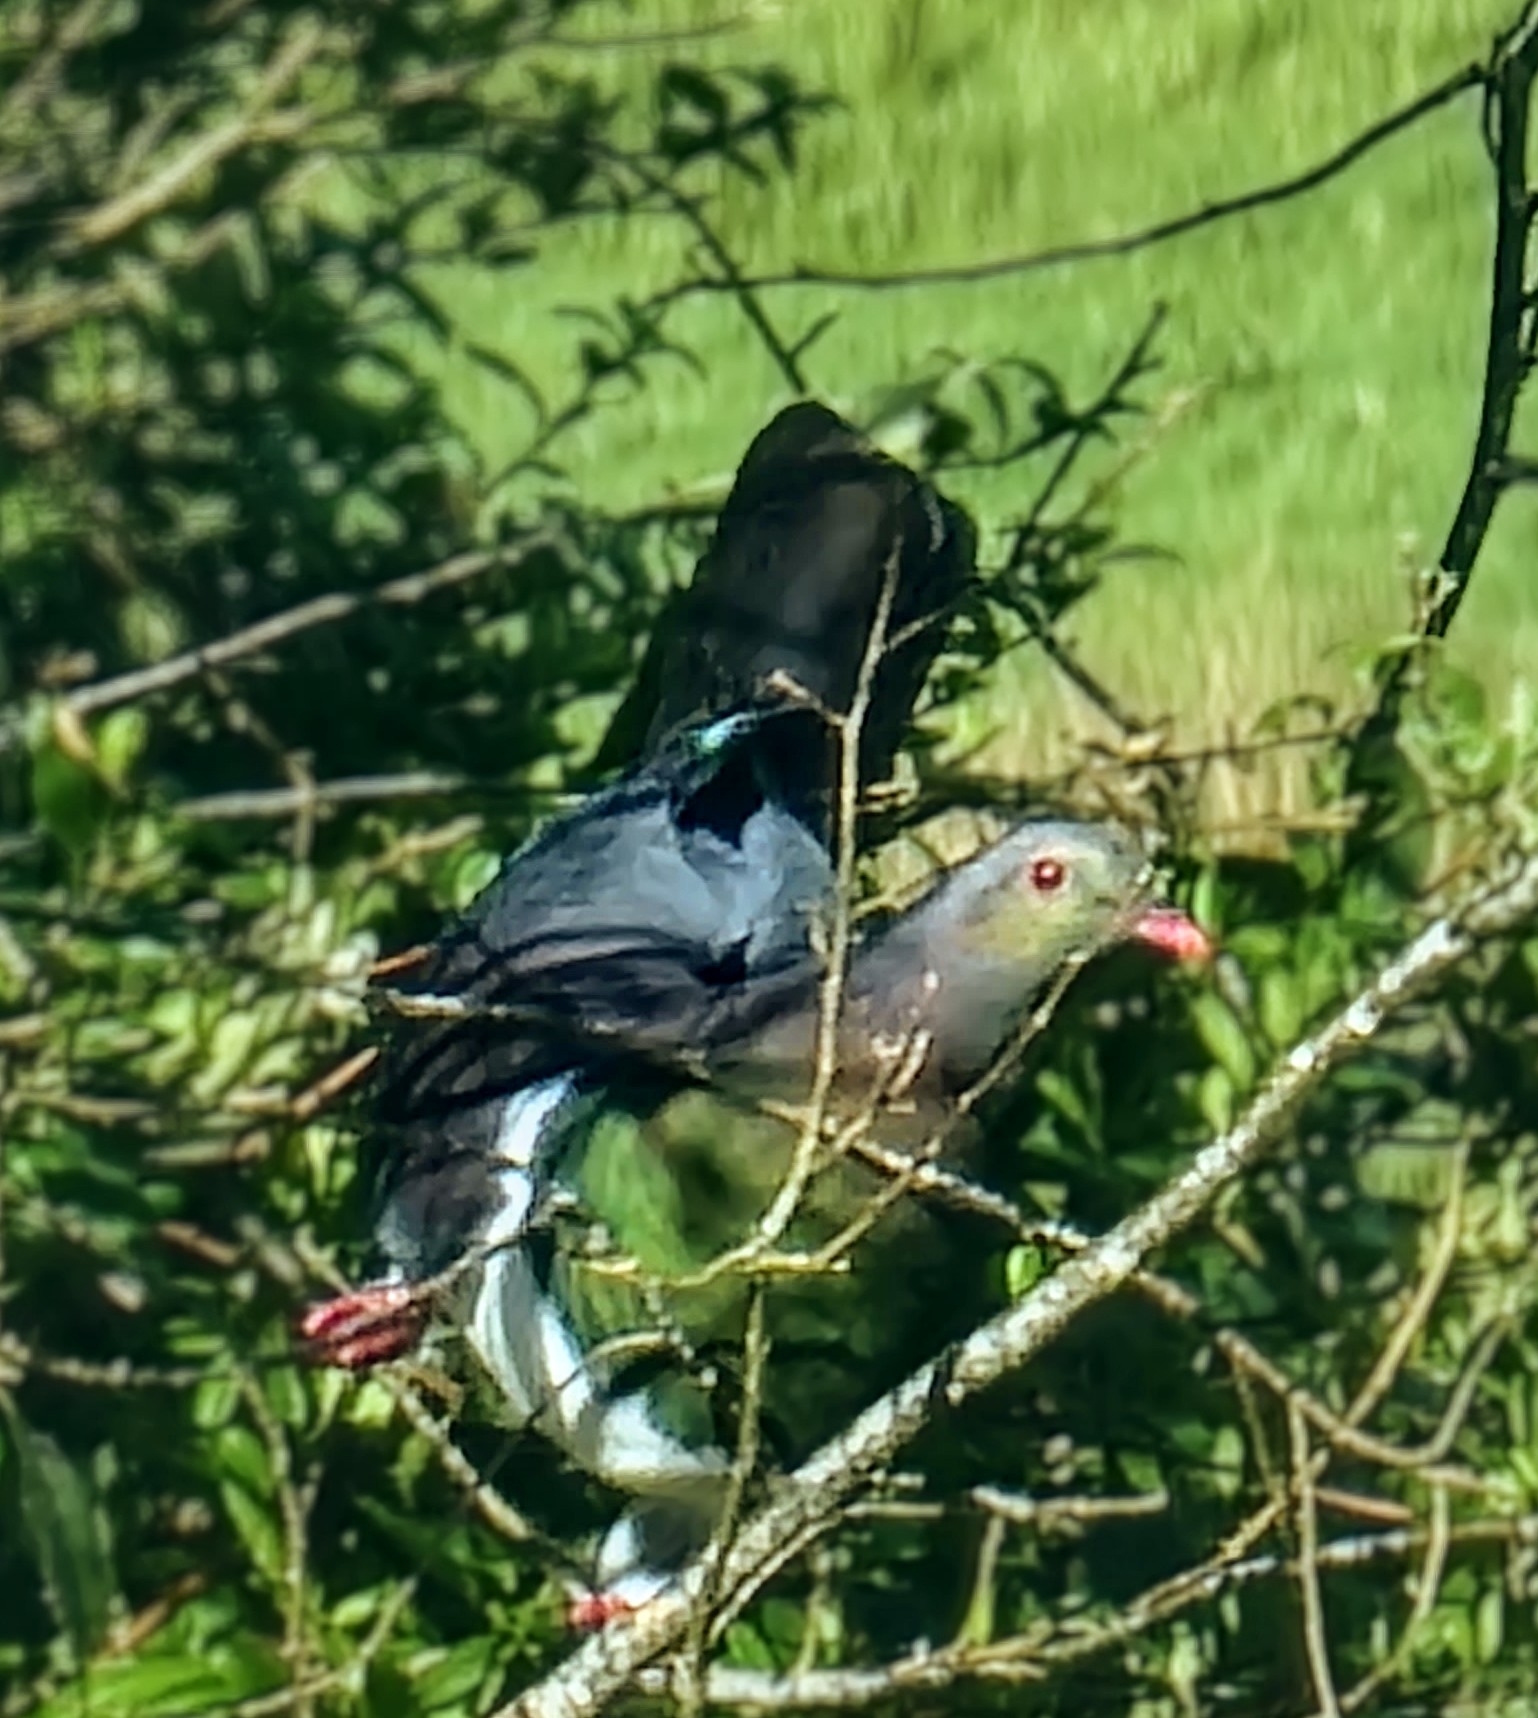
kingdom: Animalia
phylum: Chordata
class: Aves
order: Columbiformes
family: Columbidae
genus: Hemiphaga
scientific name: Hemiphaga novaeseelandiae
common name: New zealand pigeon
